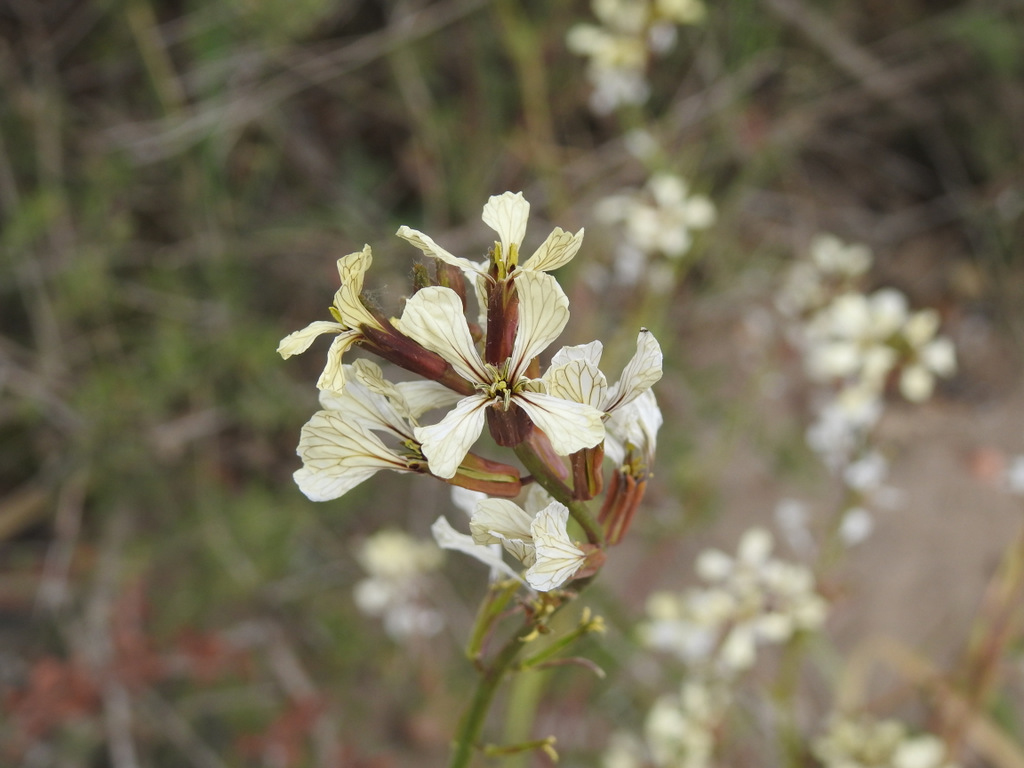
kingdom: Plantae
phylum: Tracheophyta
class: Magnoliopsida
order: Brassicales
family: Brassicaceae
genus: Eruca
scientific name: Eruca vesicaria
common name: Garden rocket
